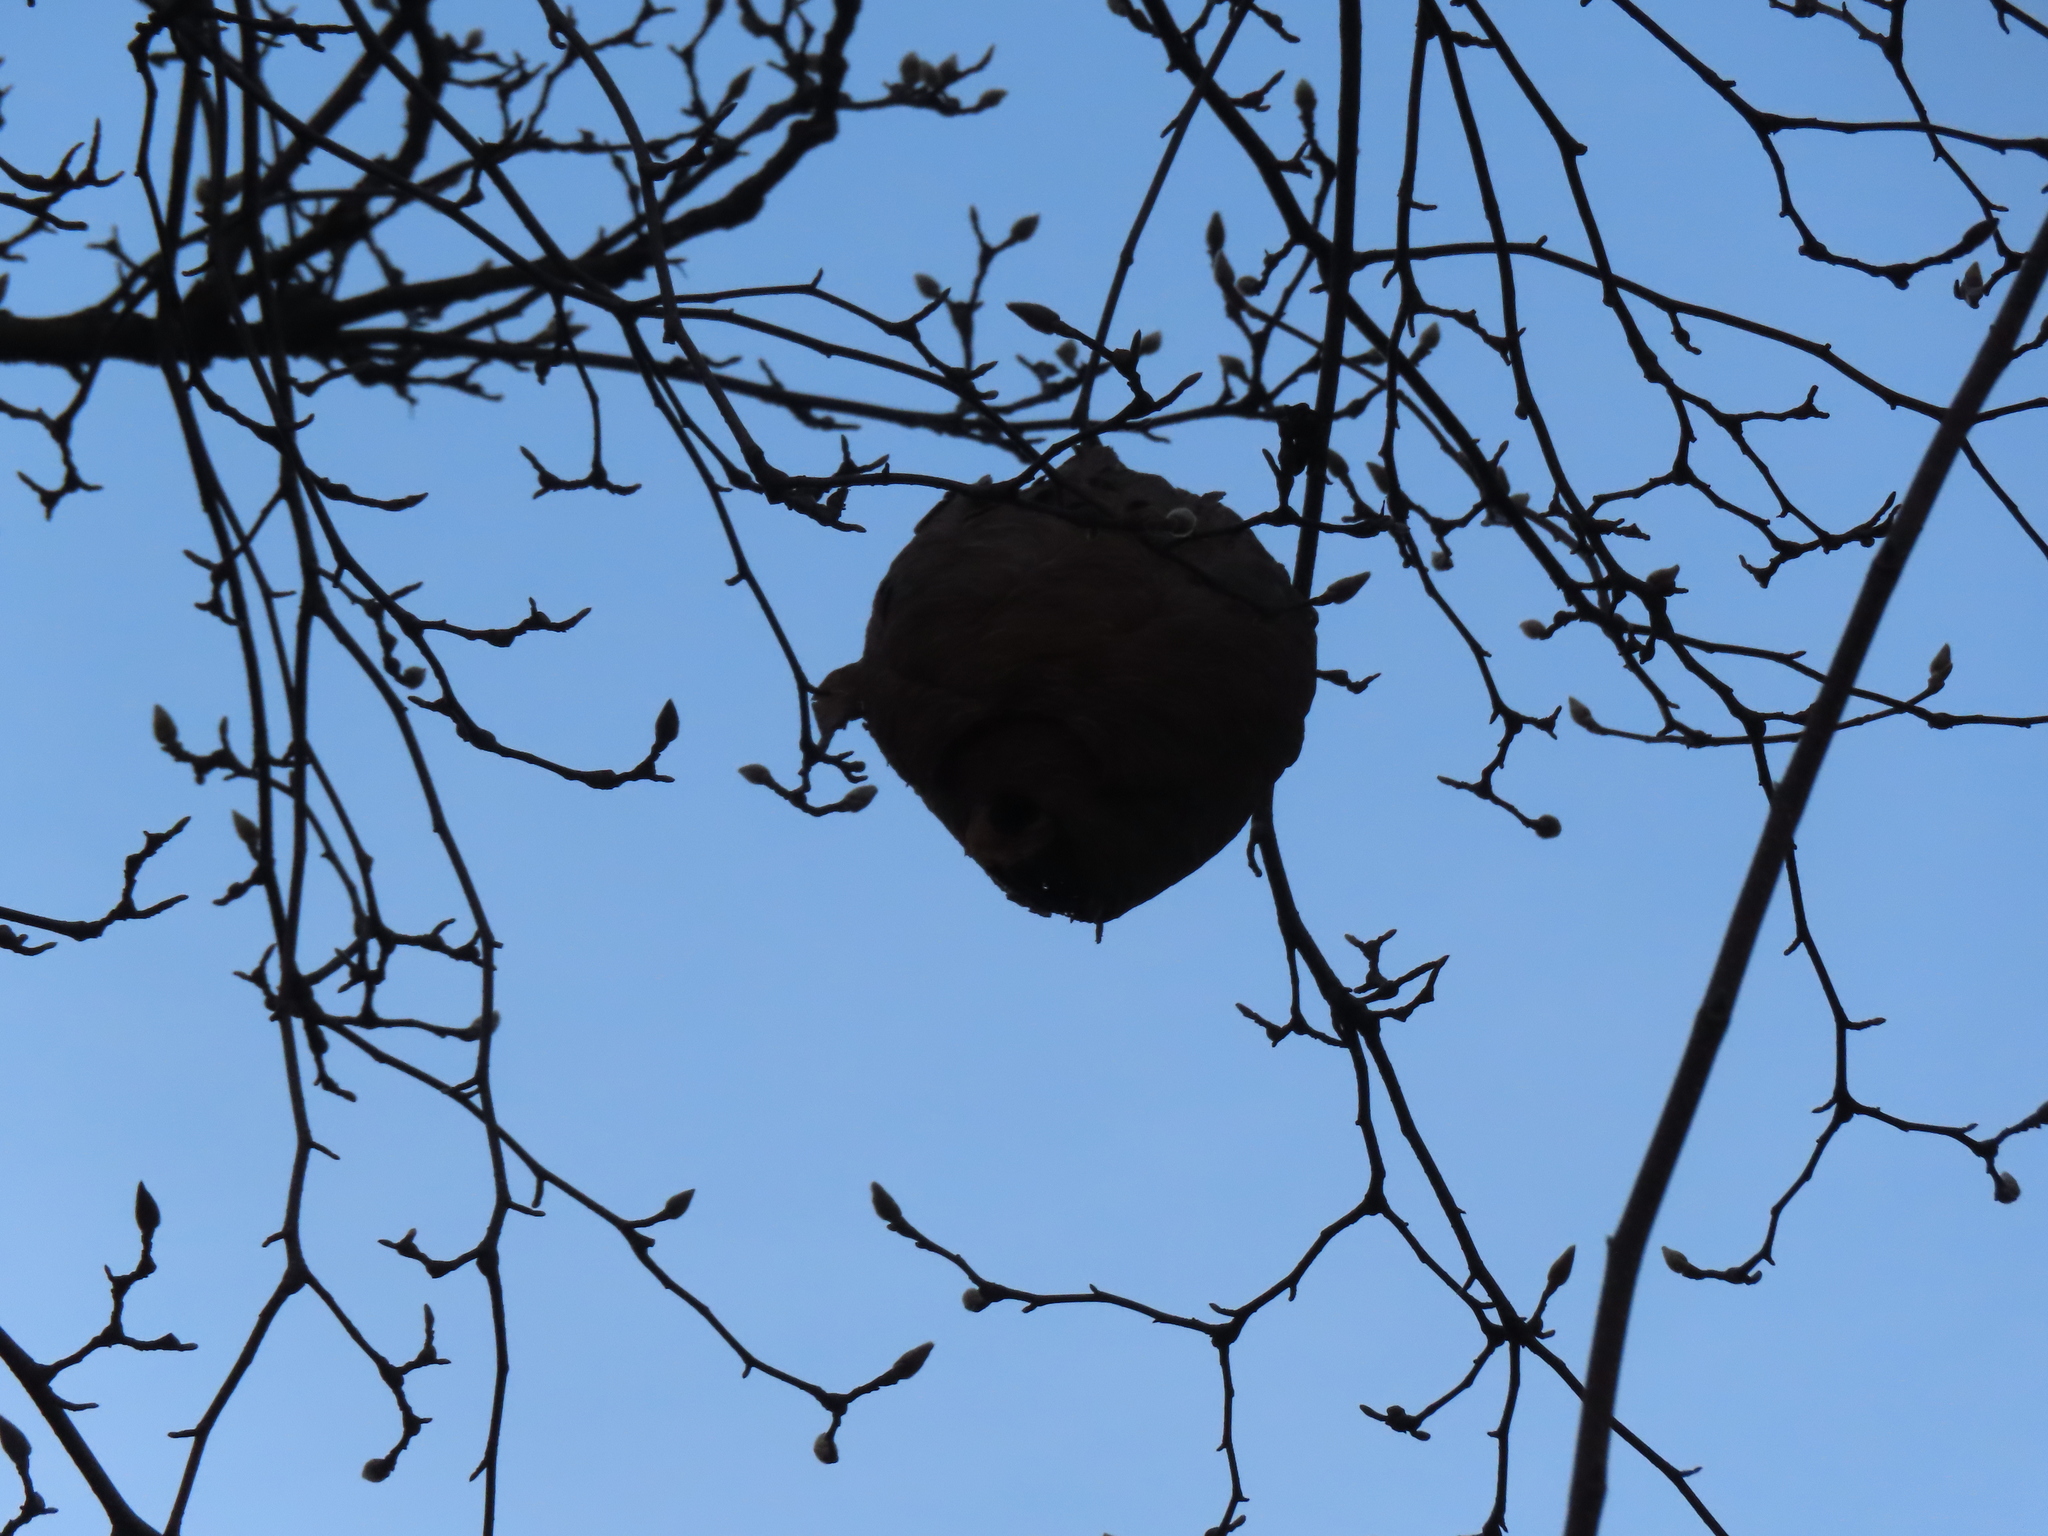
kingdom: Animalia
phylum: Arthropoda
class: Insecta
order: Hymenoptera
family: Vespidae
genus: Dolichovespula
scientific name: Dolichovespula
